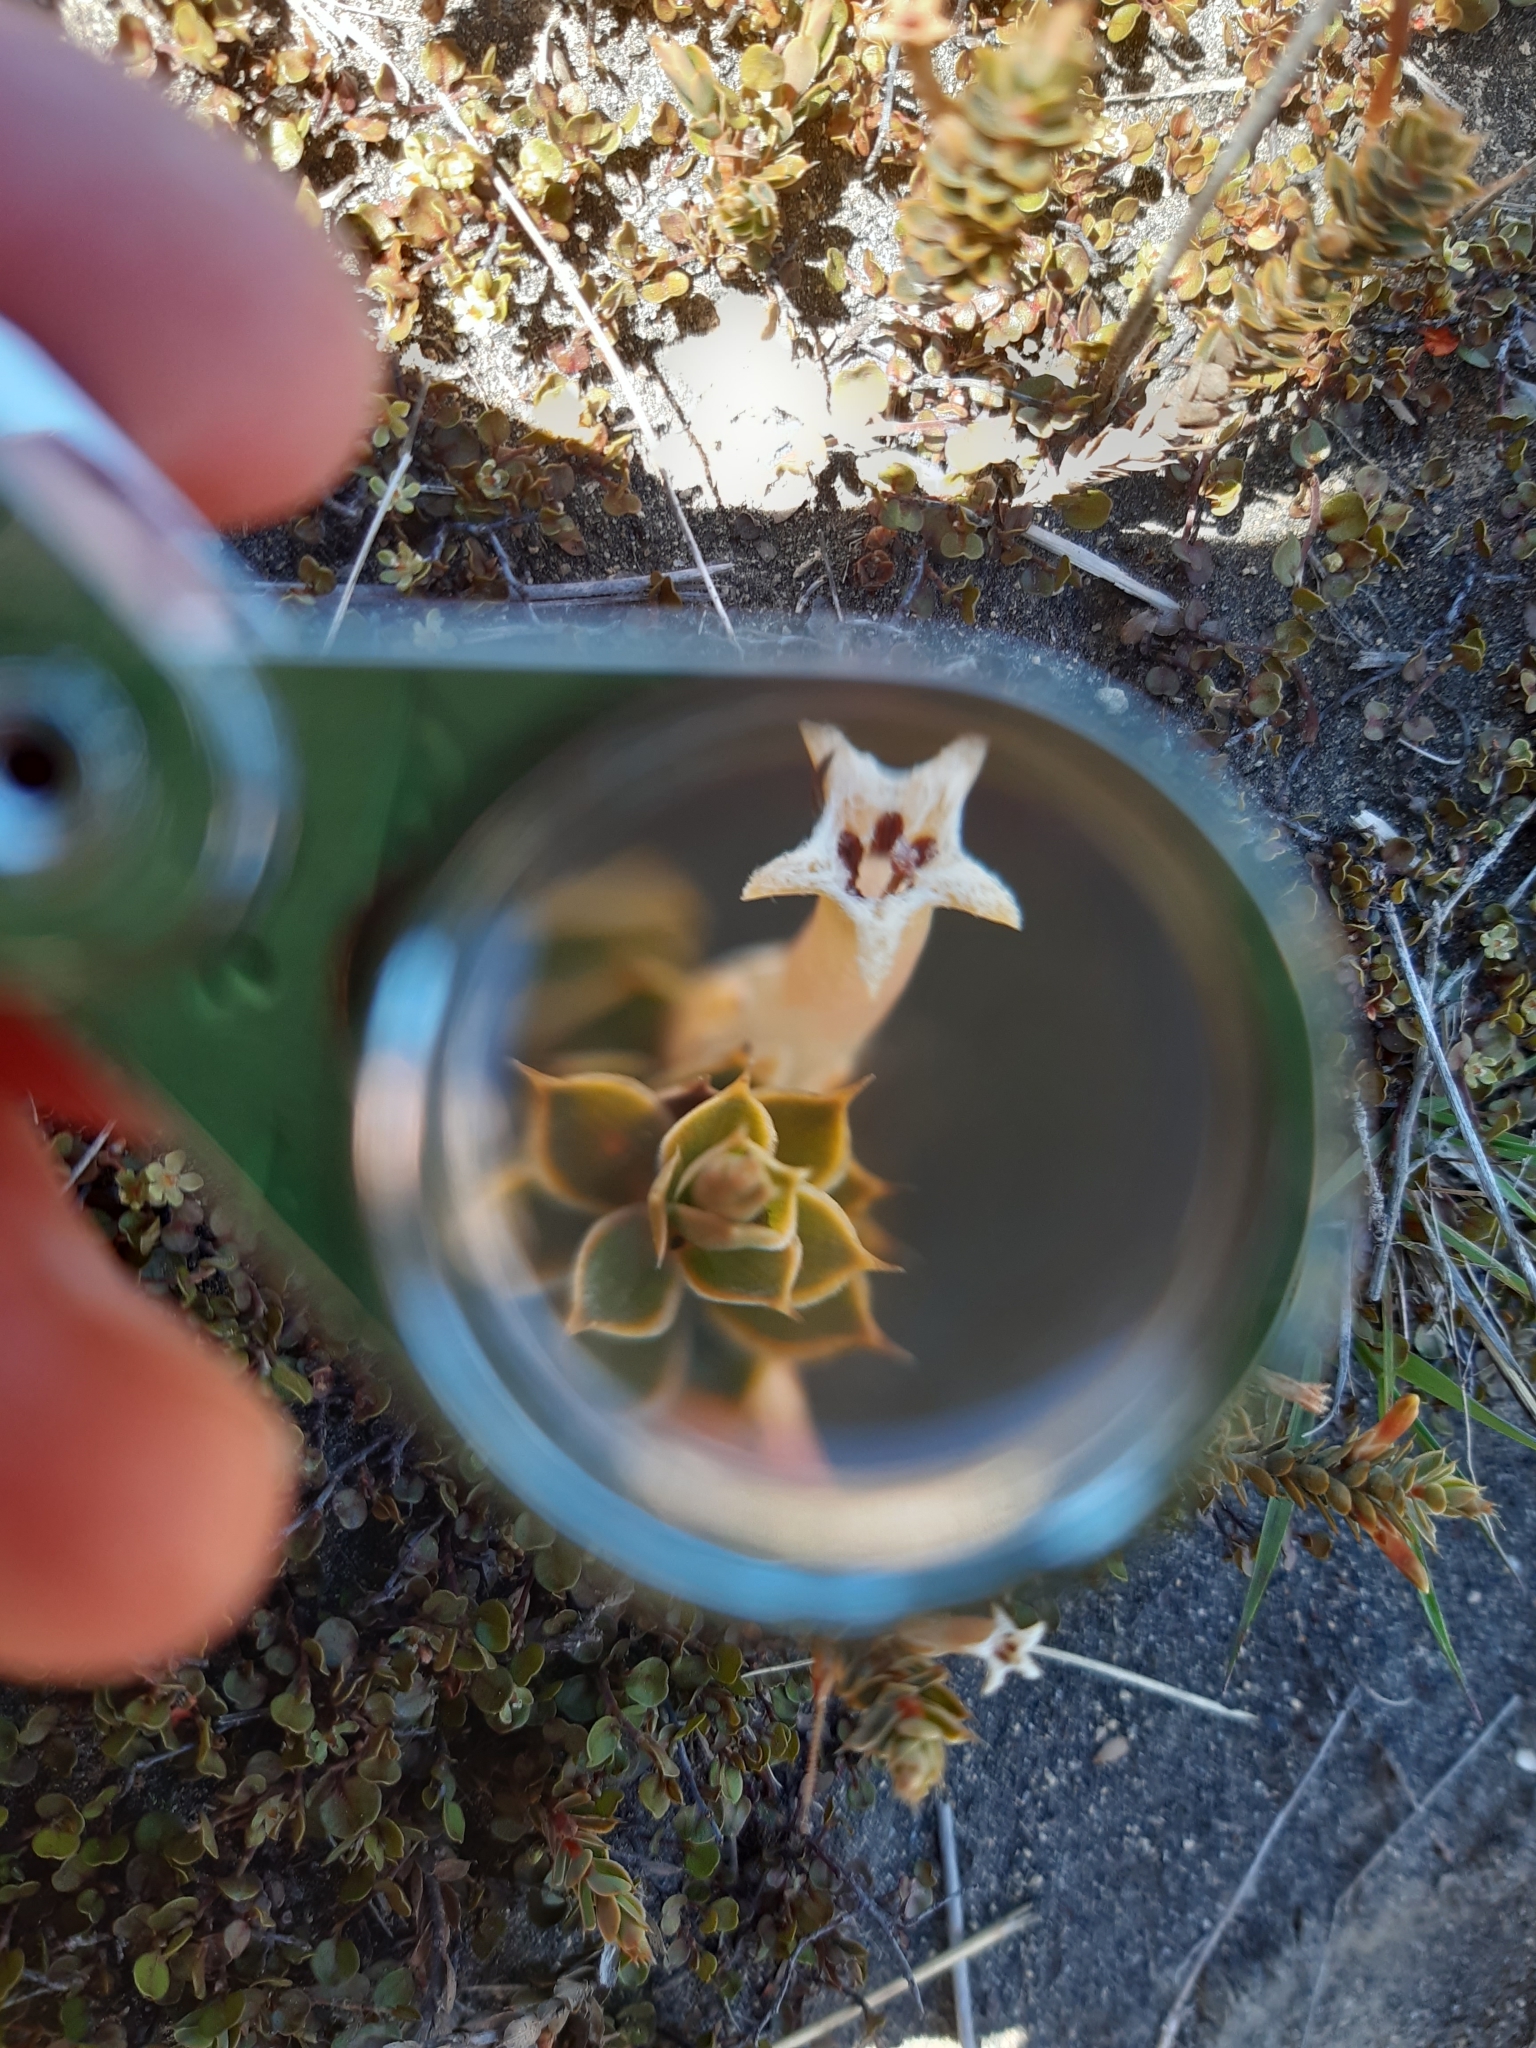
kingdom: Plantae
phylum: Tracheophyta
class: Magnoliopsida
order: Ericales
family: Ericaceae
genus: Styphelia
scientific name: Styphelia nesophila
